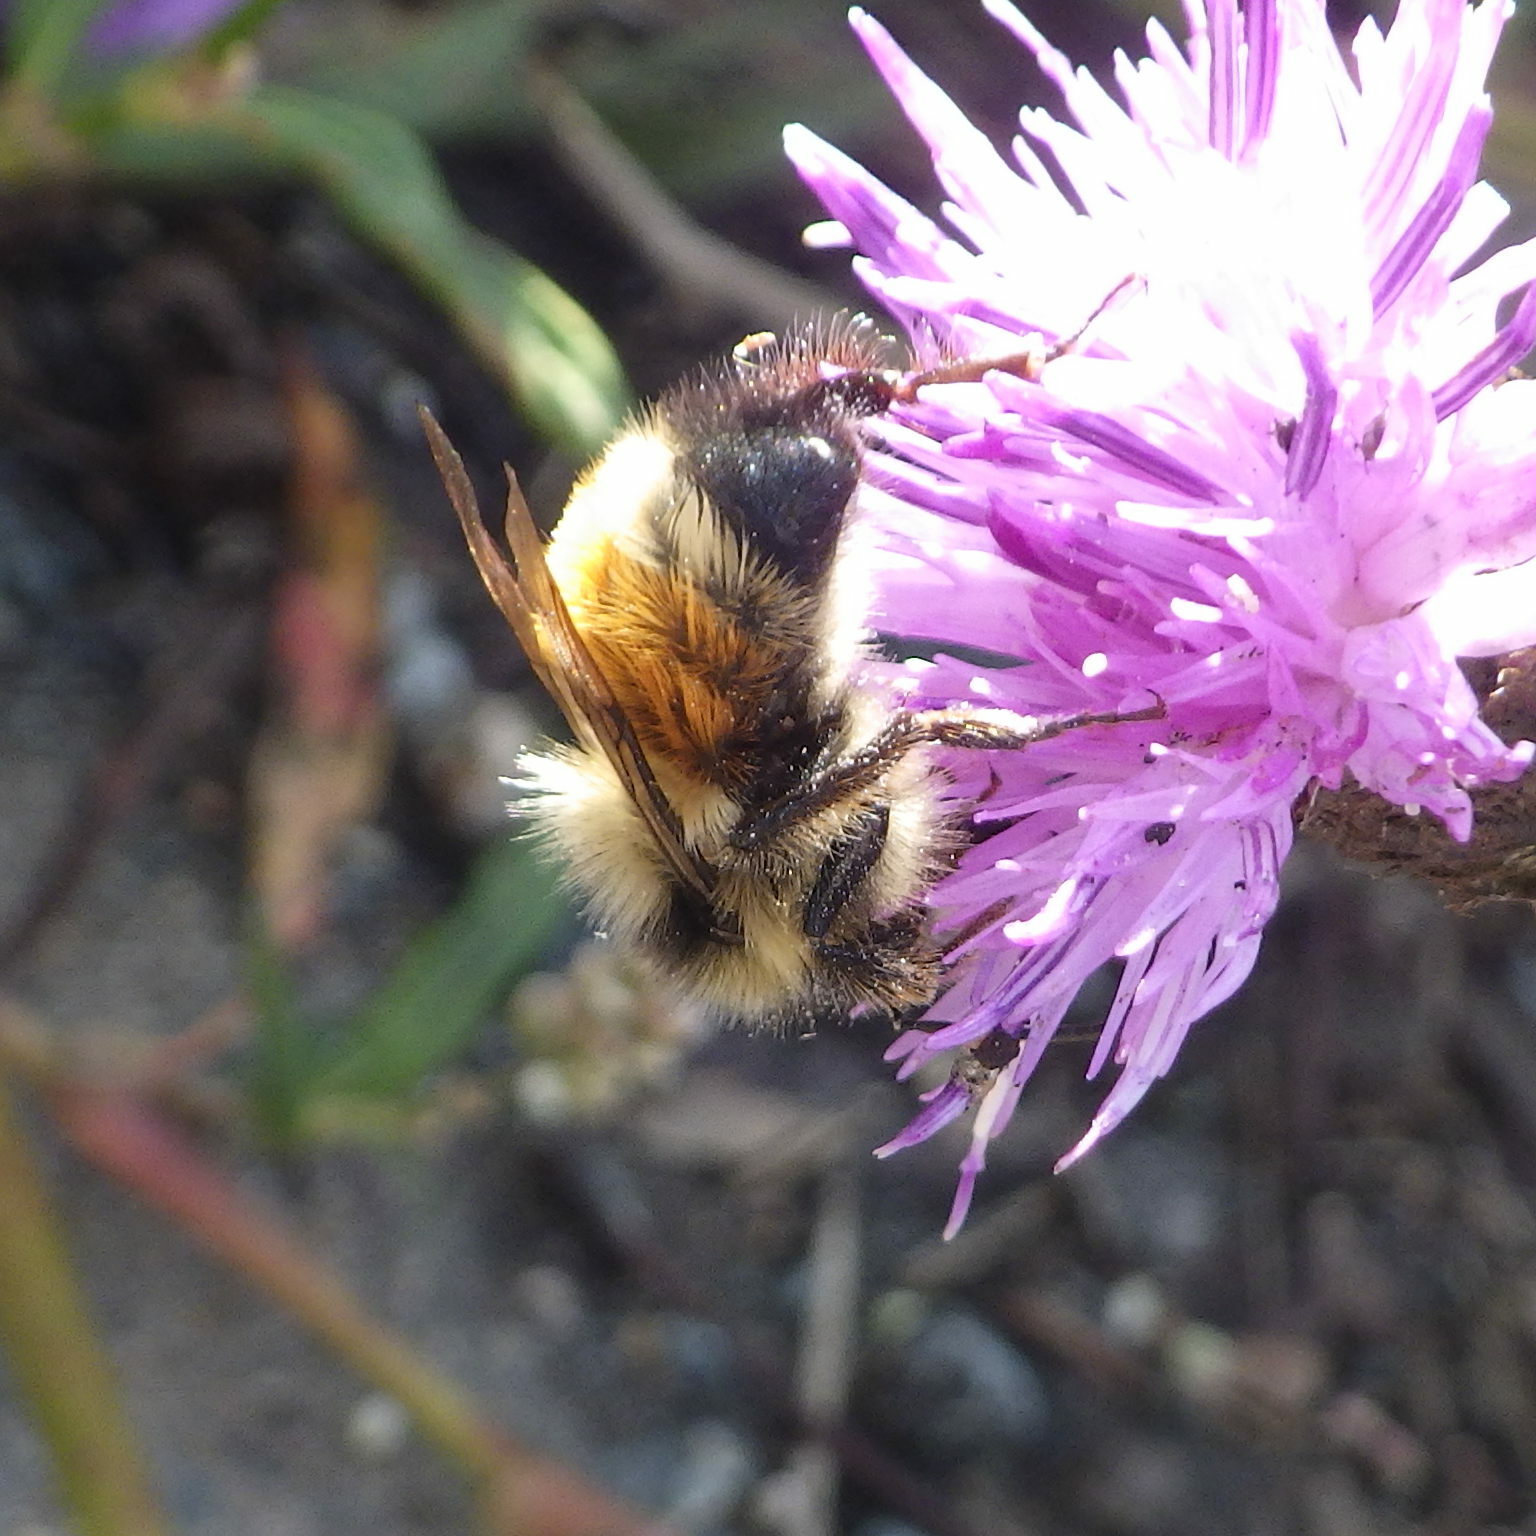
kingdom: Animalia
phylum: Arthropoda
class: Insecta
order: Hymenoptera
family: Apidae
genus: Bombus
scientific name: Bombus ternarius
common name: Tri-colored bumble bee
